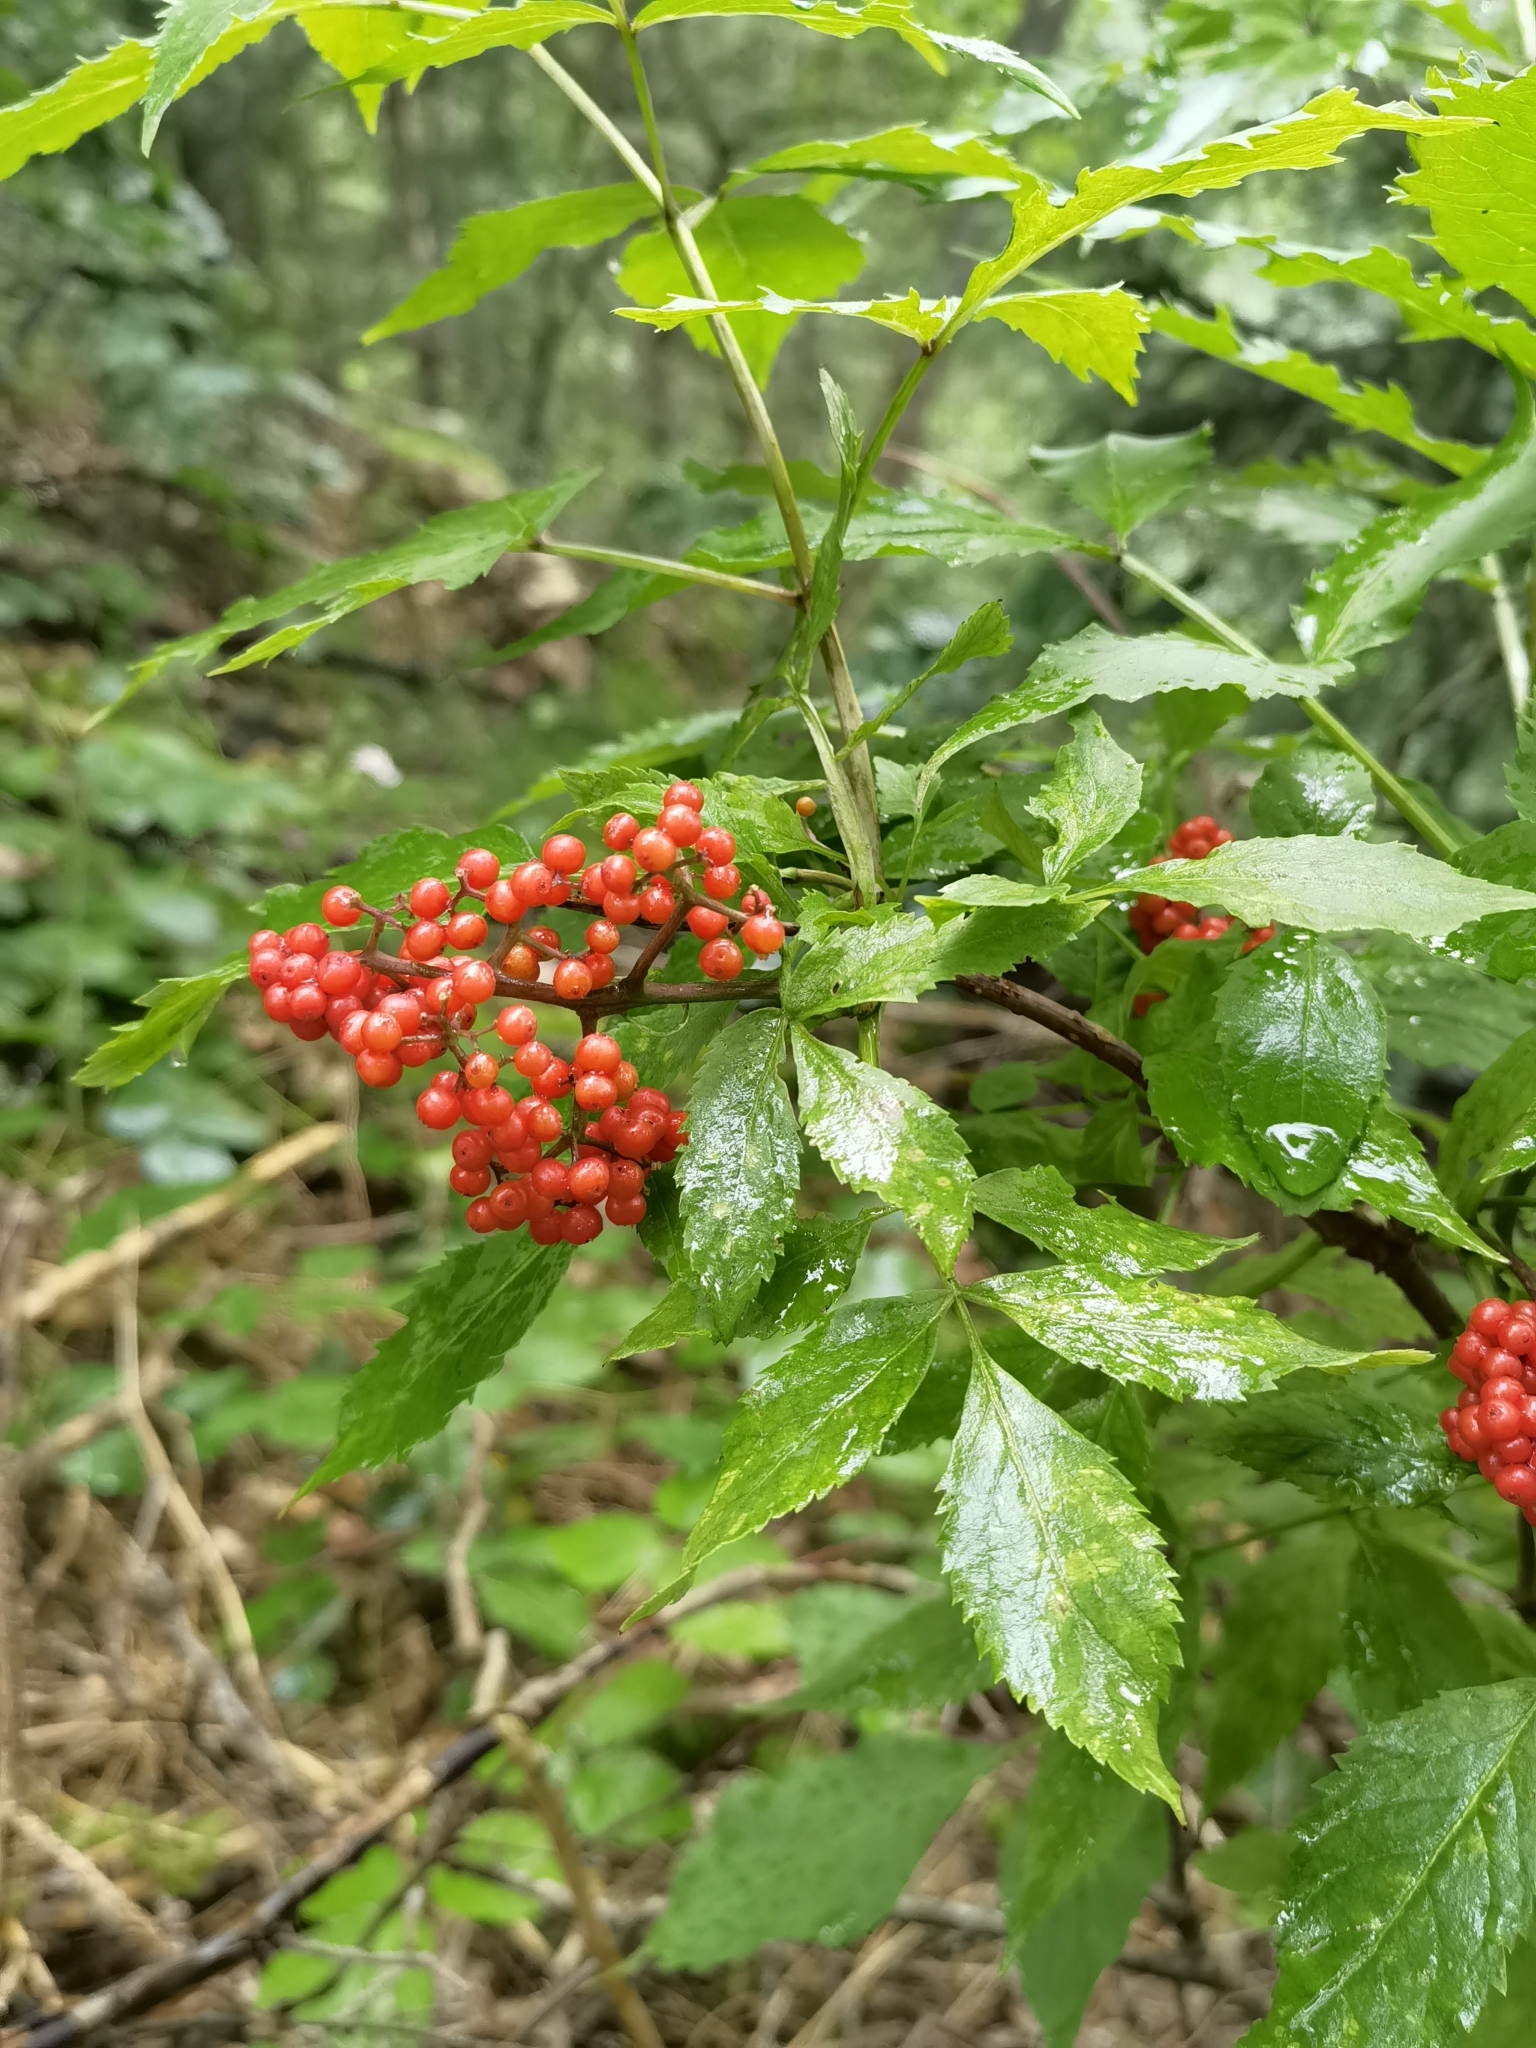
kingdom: Plantae
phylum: Tracheophyta
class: Magnoliopsida
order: Dipsacales
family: Viburnaceae
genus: Sambucus
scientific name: Sambucus racemosa
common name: Red-berried elder
